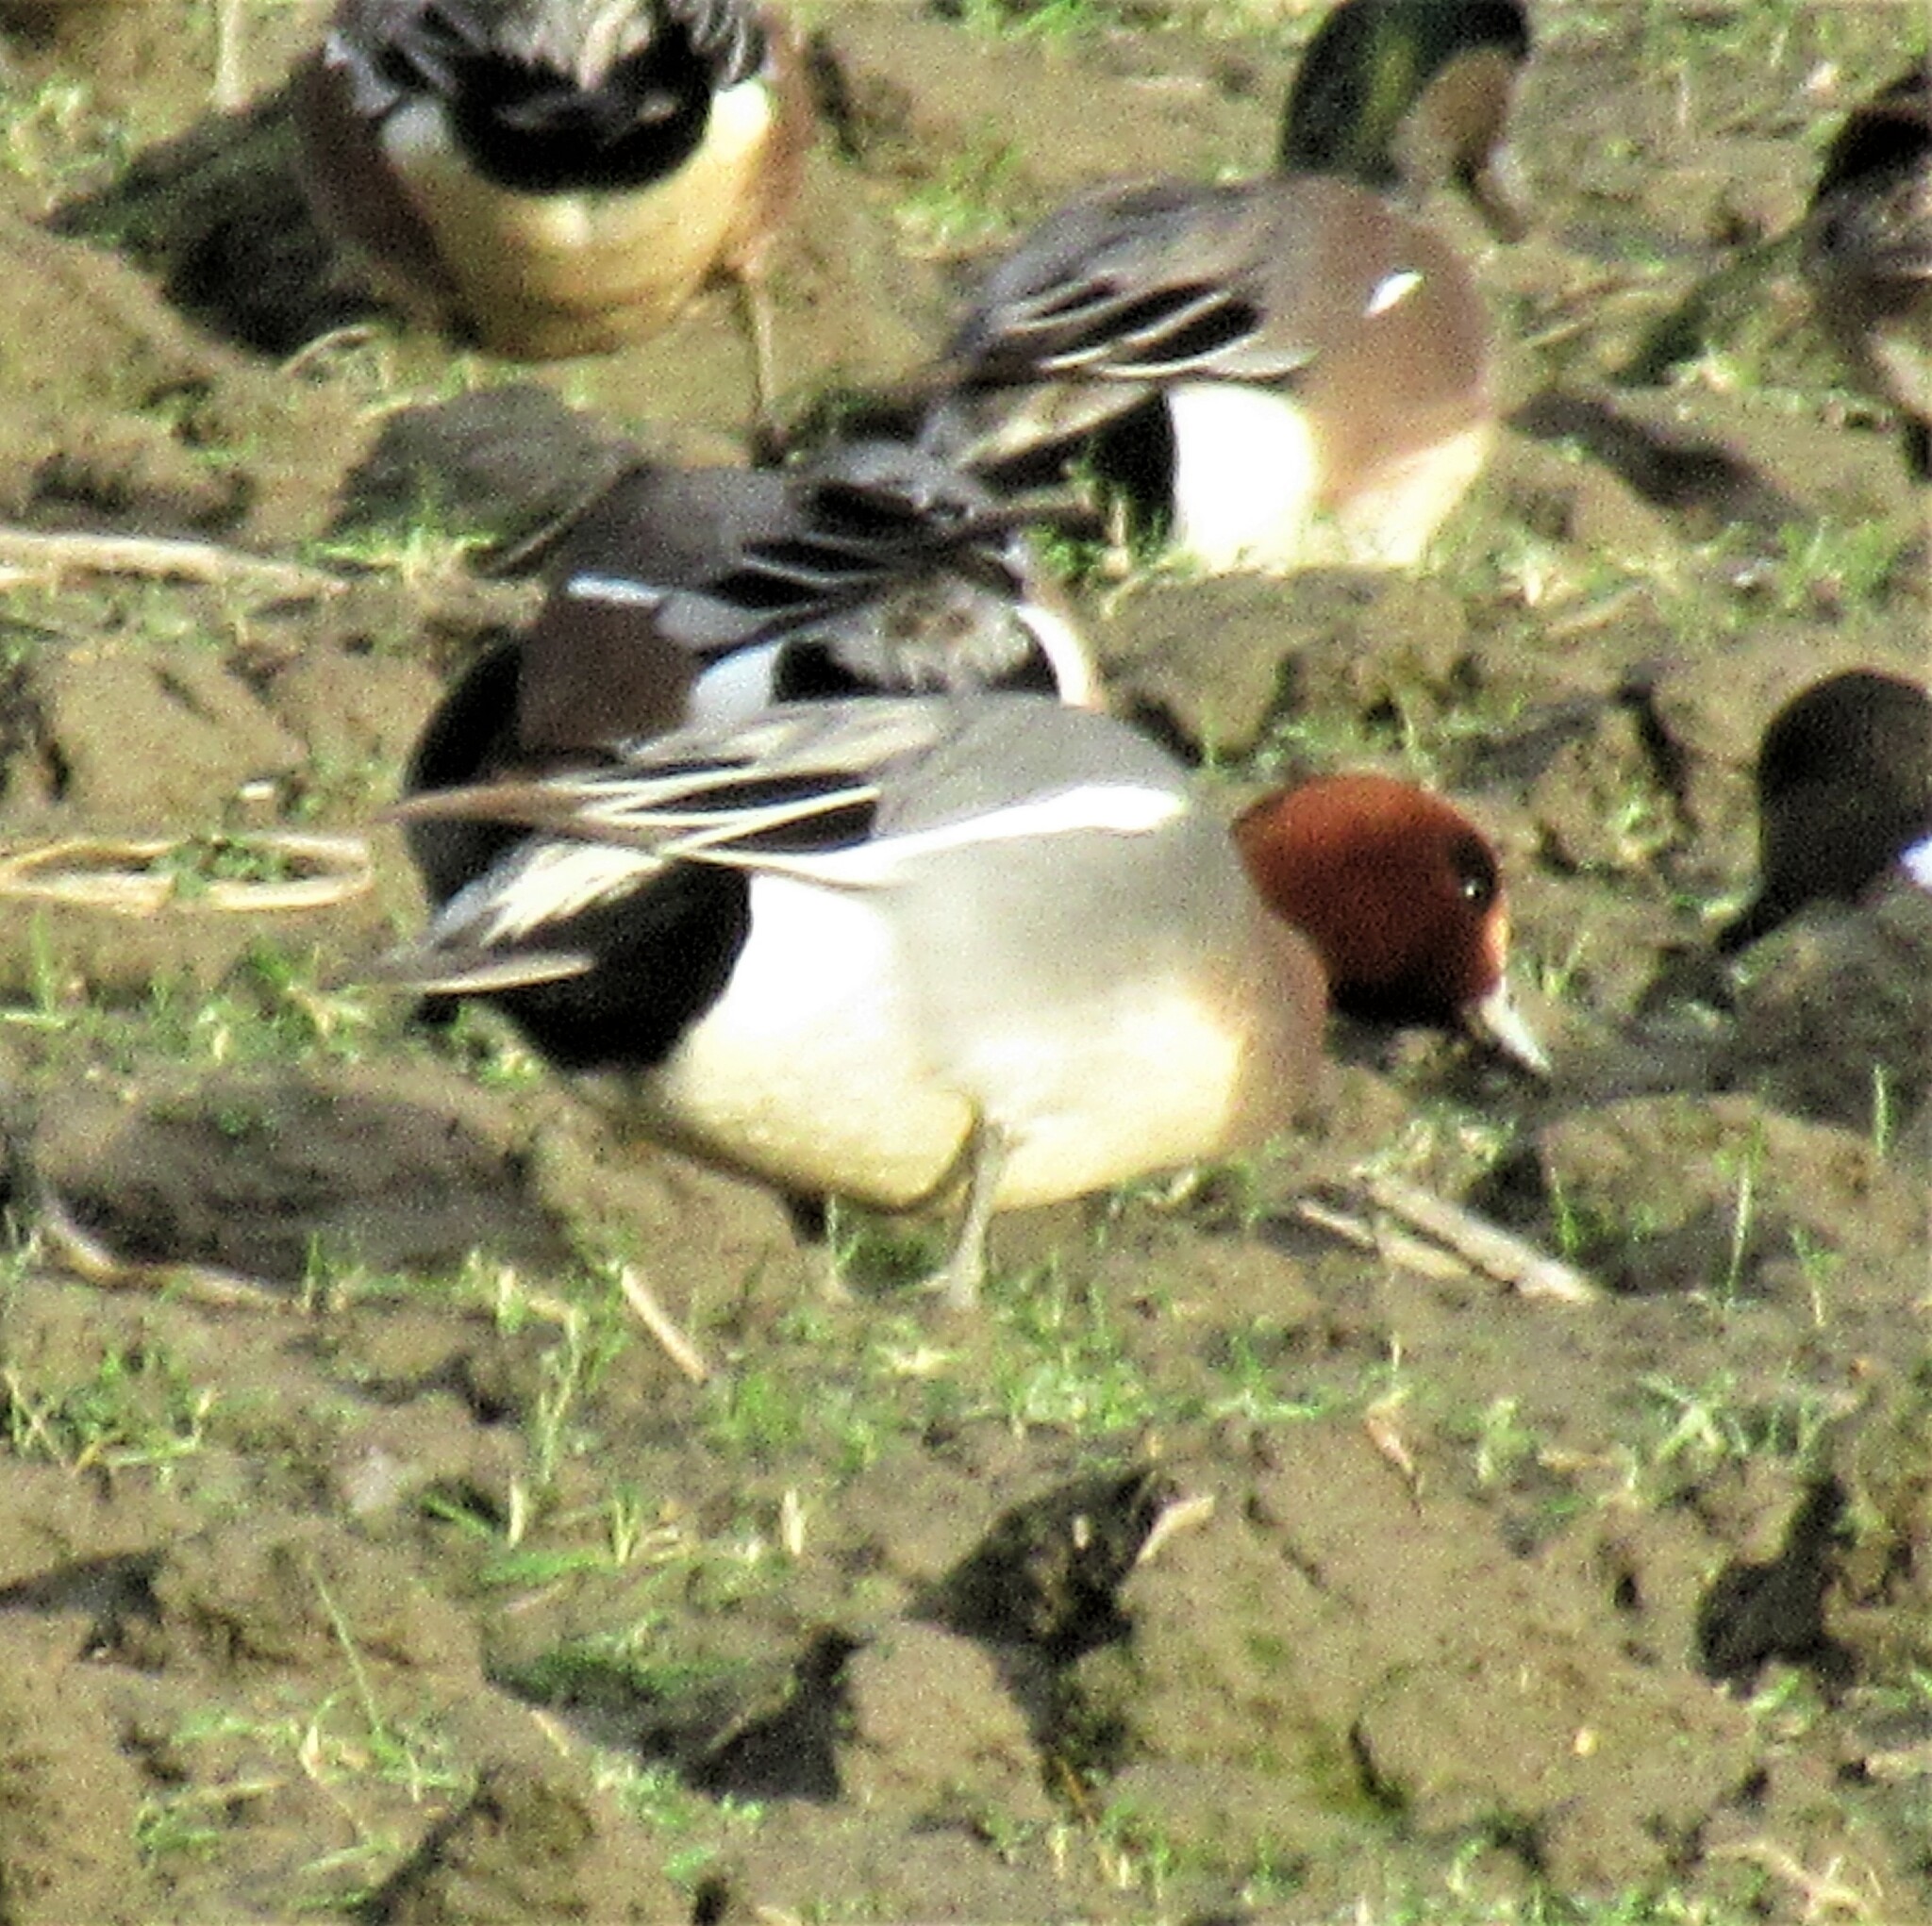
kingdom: Animalia
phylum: Chordata
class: Aves
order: Anseriformes
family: Anatidae
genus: Mareca
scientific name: Mareca penelope
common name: Eurasian wigeon
